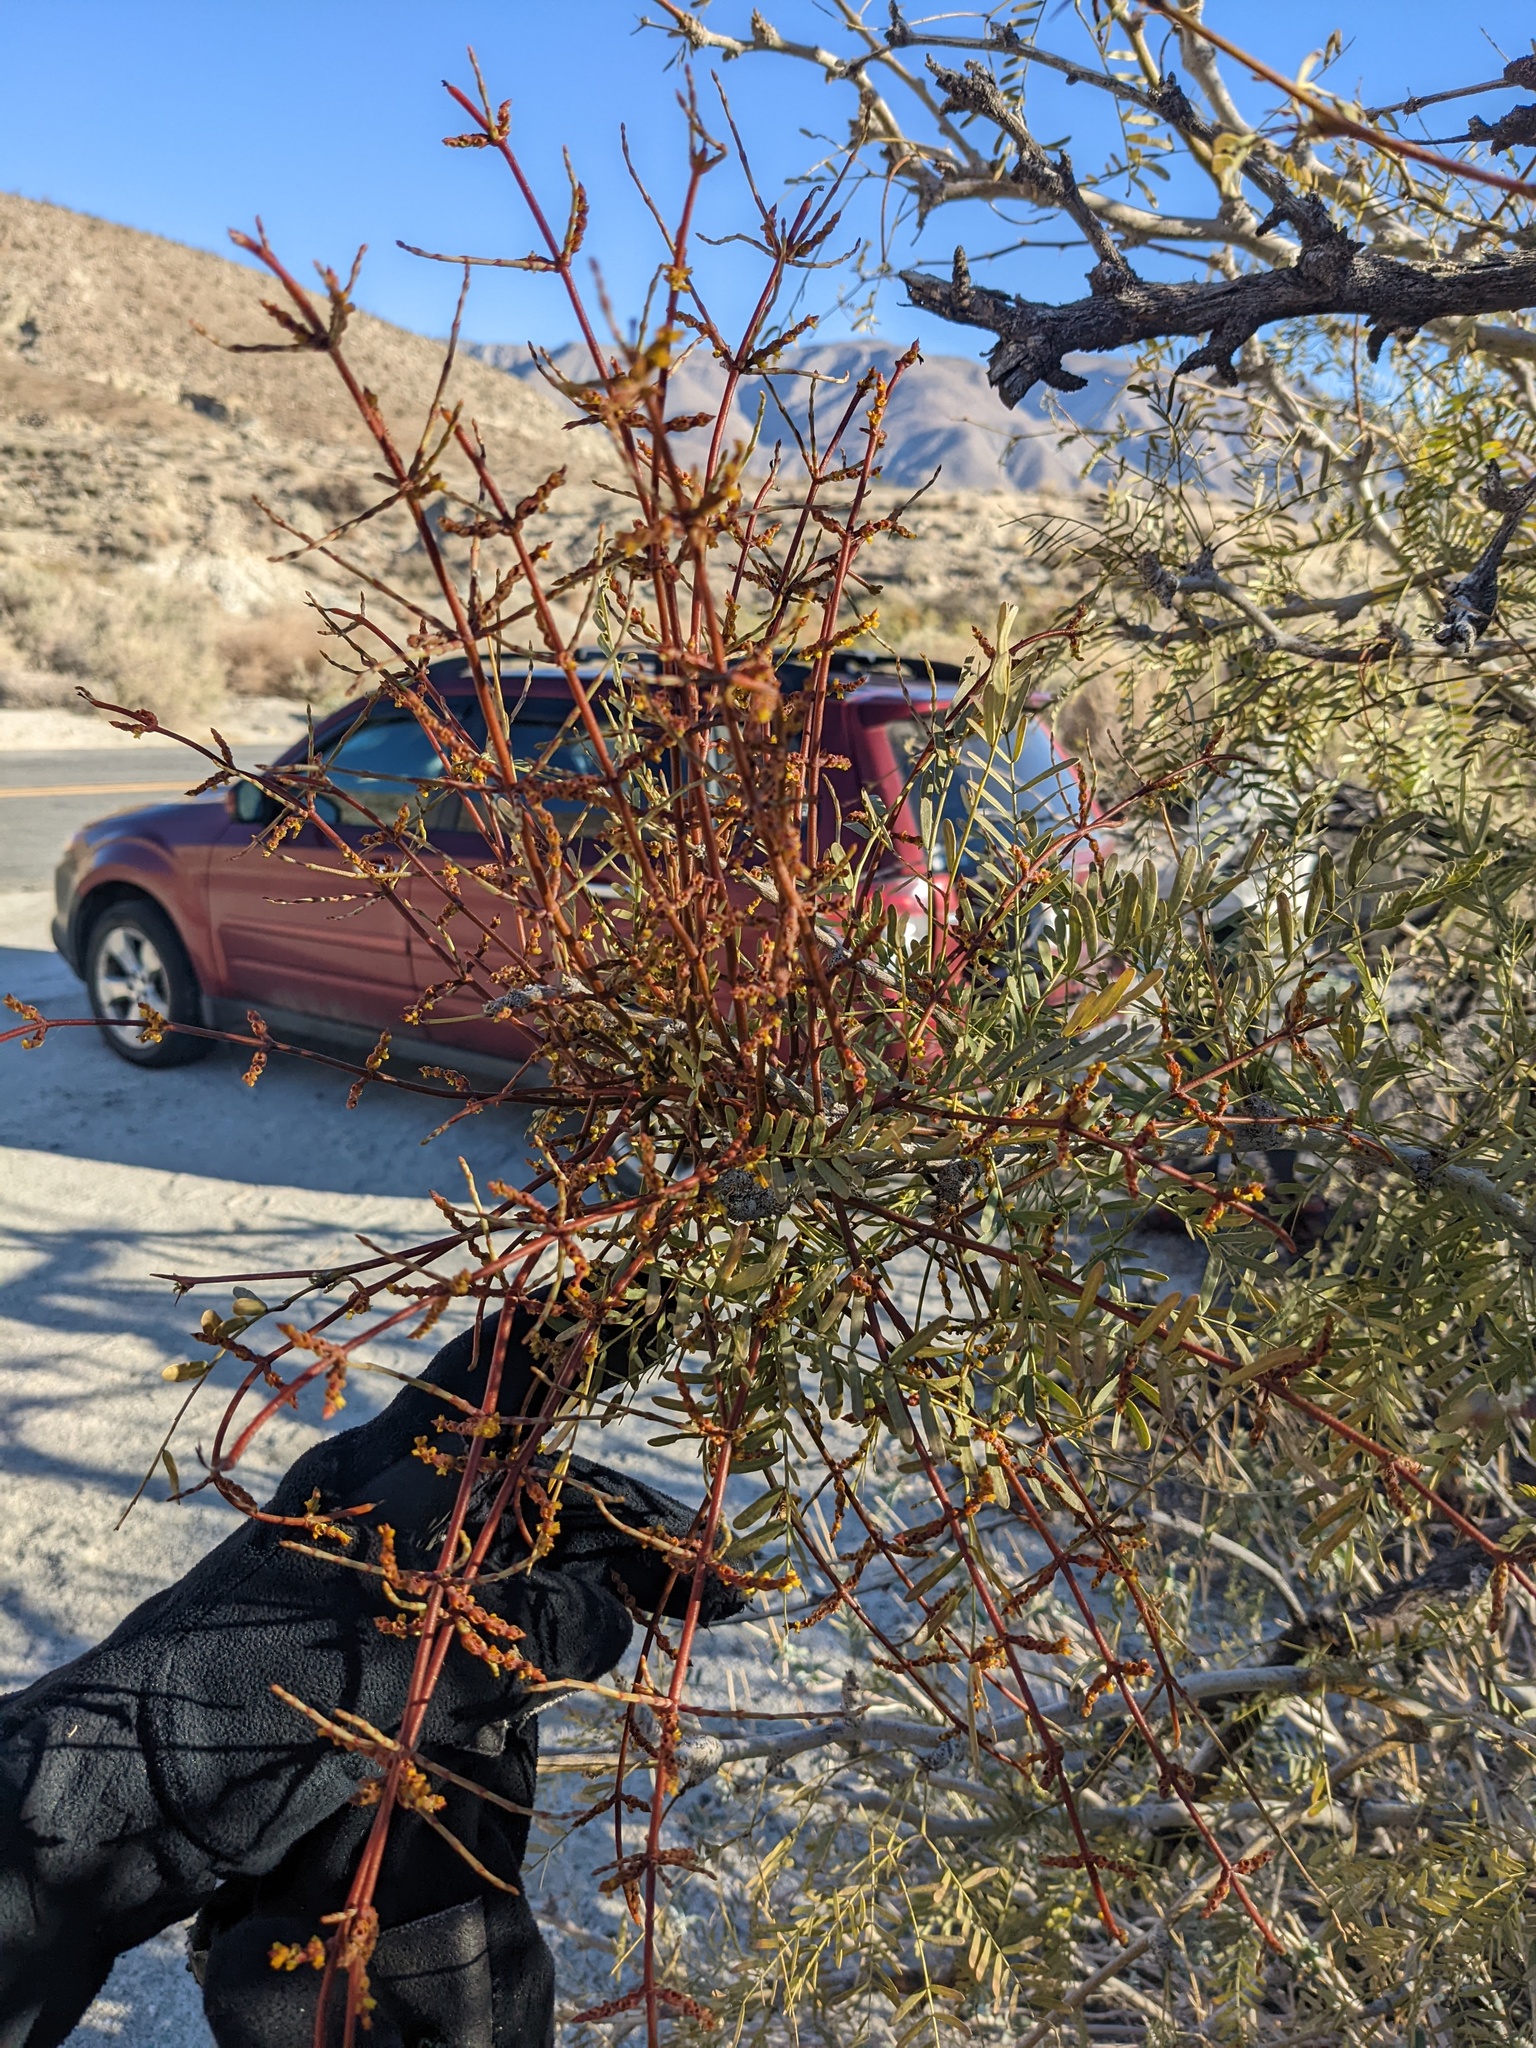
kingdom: Plantae
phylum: Tracheophyta
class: Magnoliopsida
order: Santalales
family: Viscaceae
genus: Phoradendron
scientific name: Phoradendron californicum
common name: Acacia mistletoe
